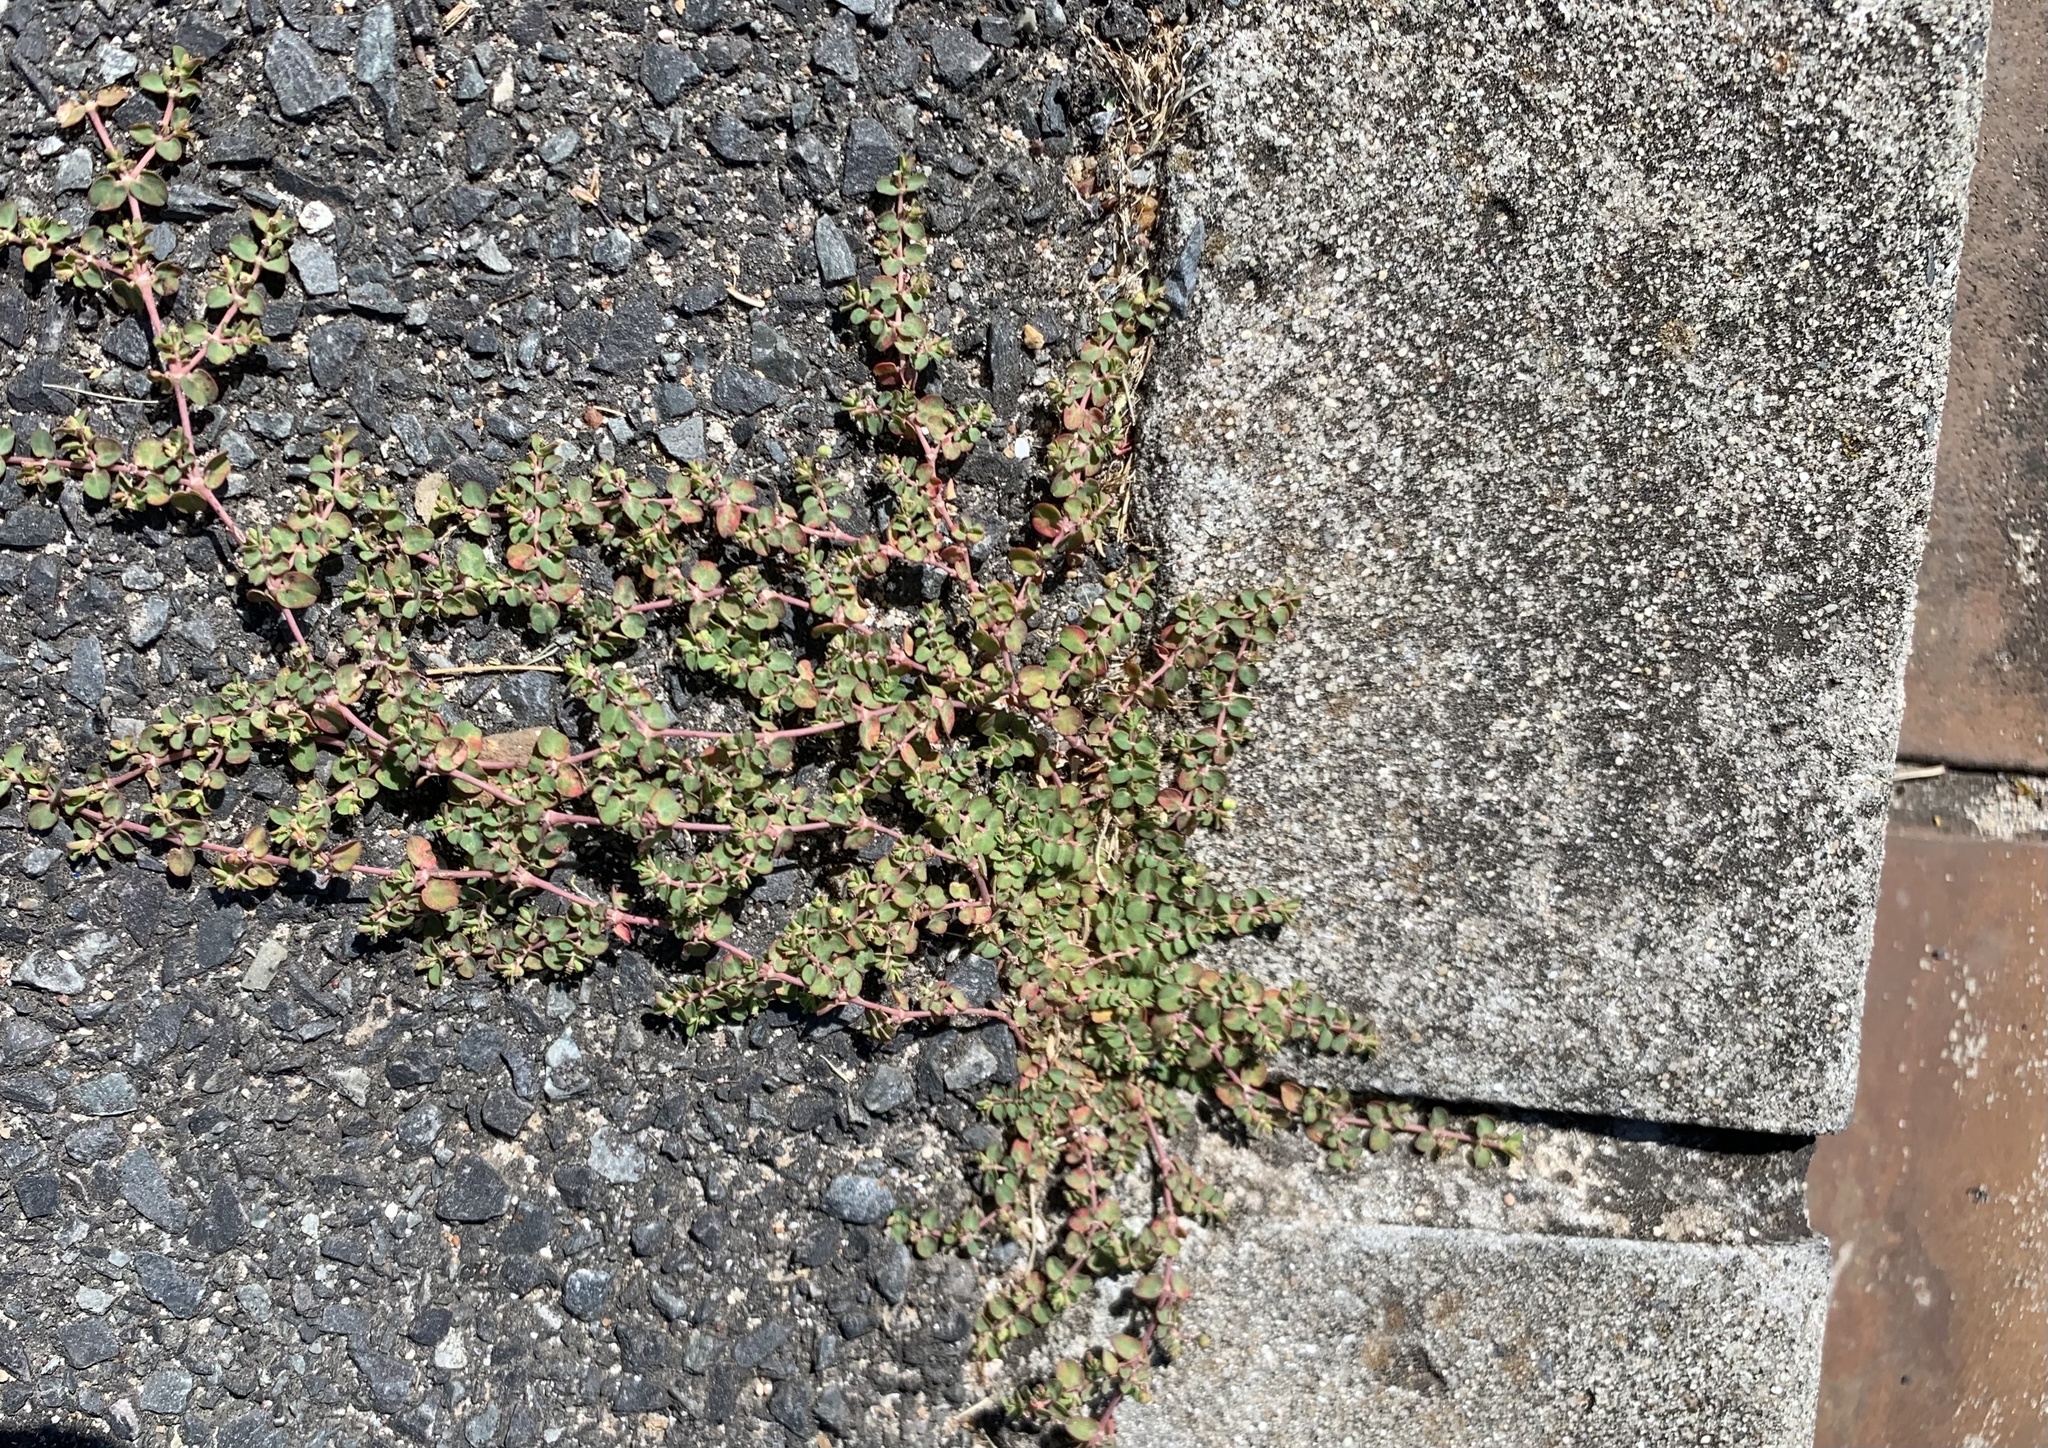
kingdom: Plantae
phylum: Tracheophyta
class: Magnoliopsida
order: Malpighiales
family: Euphorbiaceae
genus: Euphorbia
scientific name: Euphorbia serpens
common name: Matted sandmat
